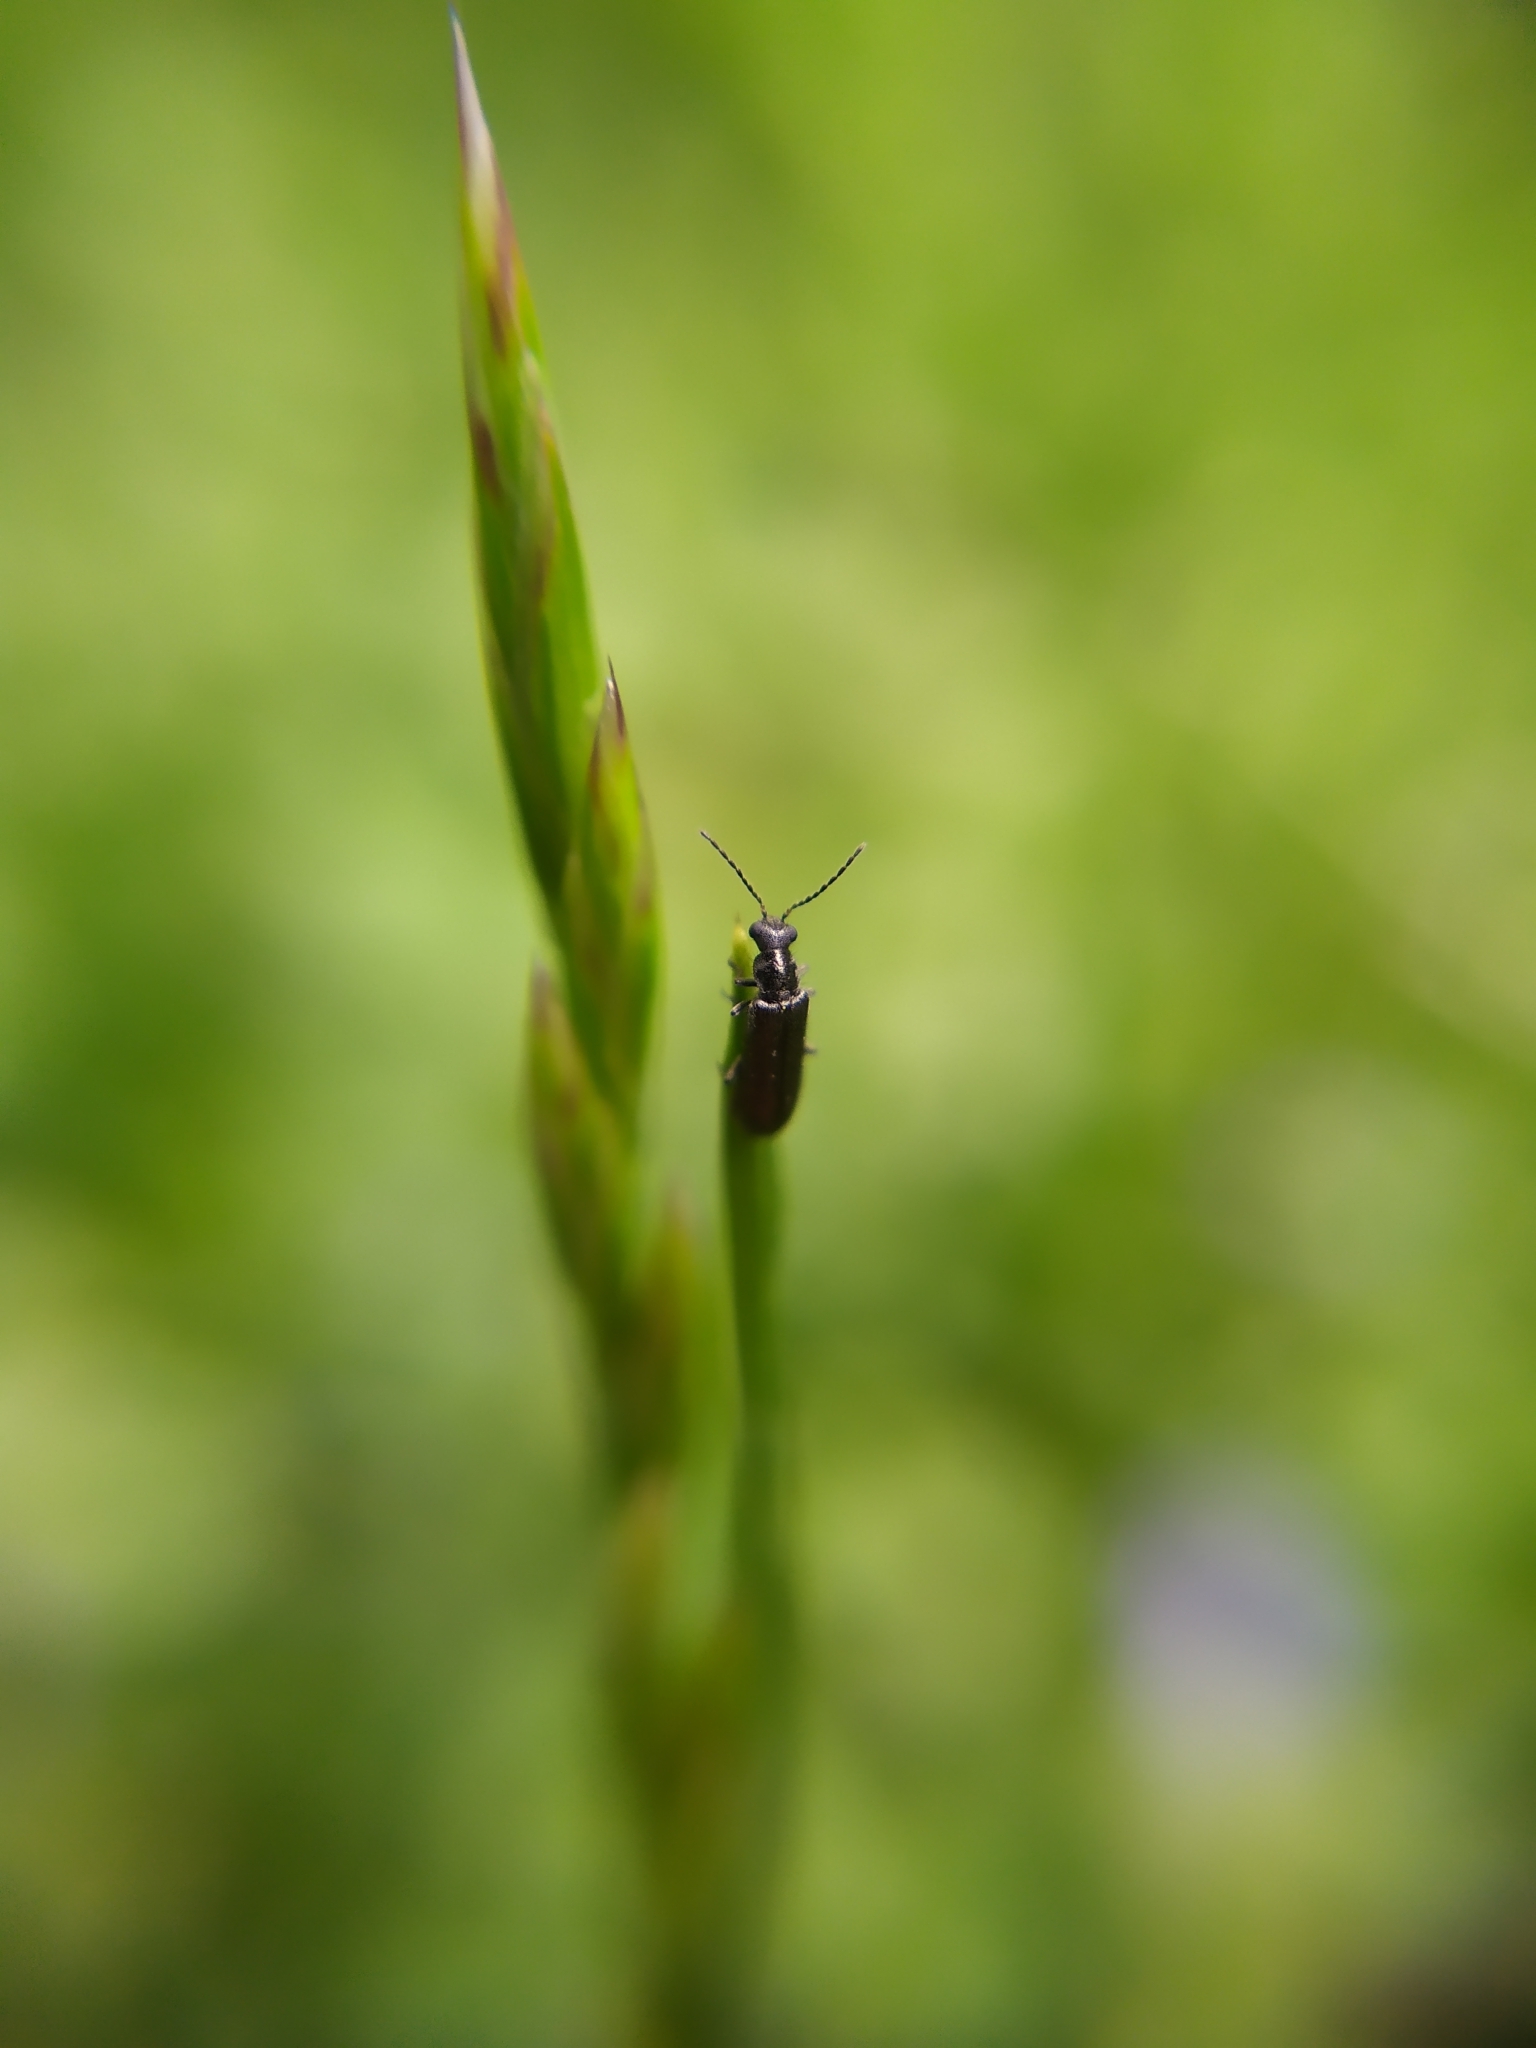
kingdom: Animalia
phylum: Arthropoda
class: Insecta
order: Coleoptera
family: Melyridae
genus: Dasytes
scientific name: Dasytes
